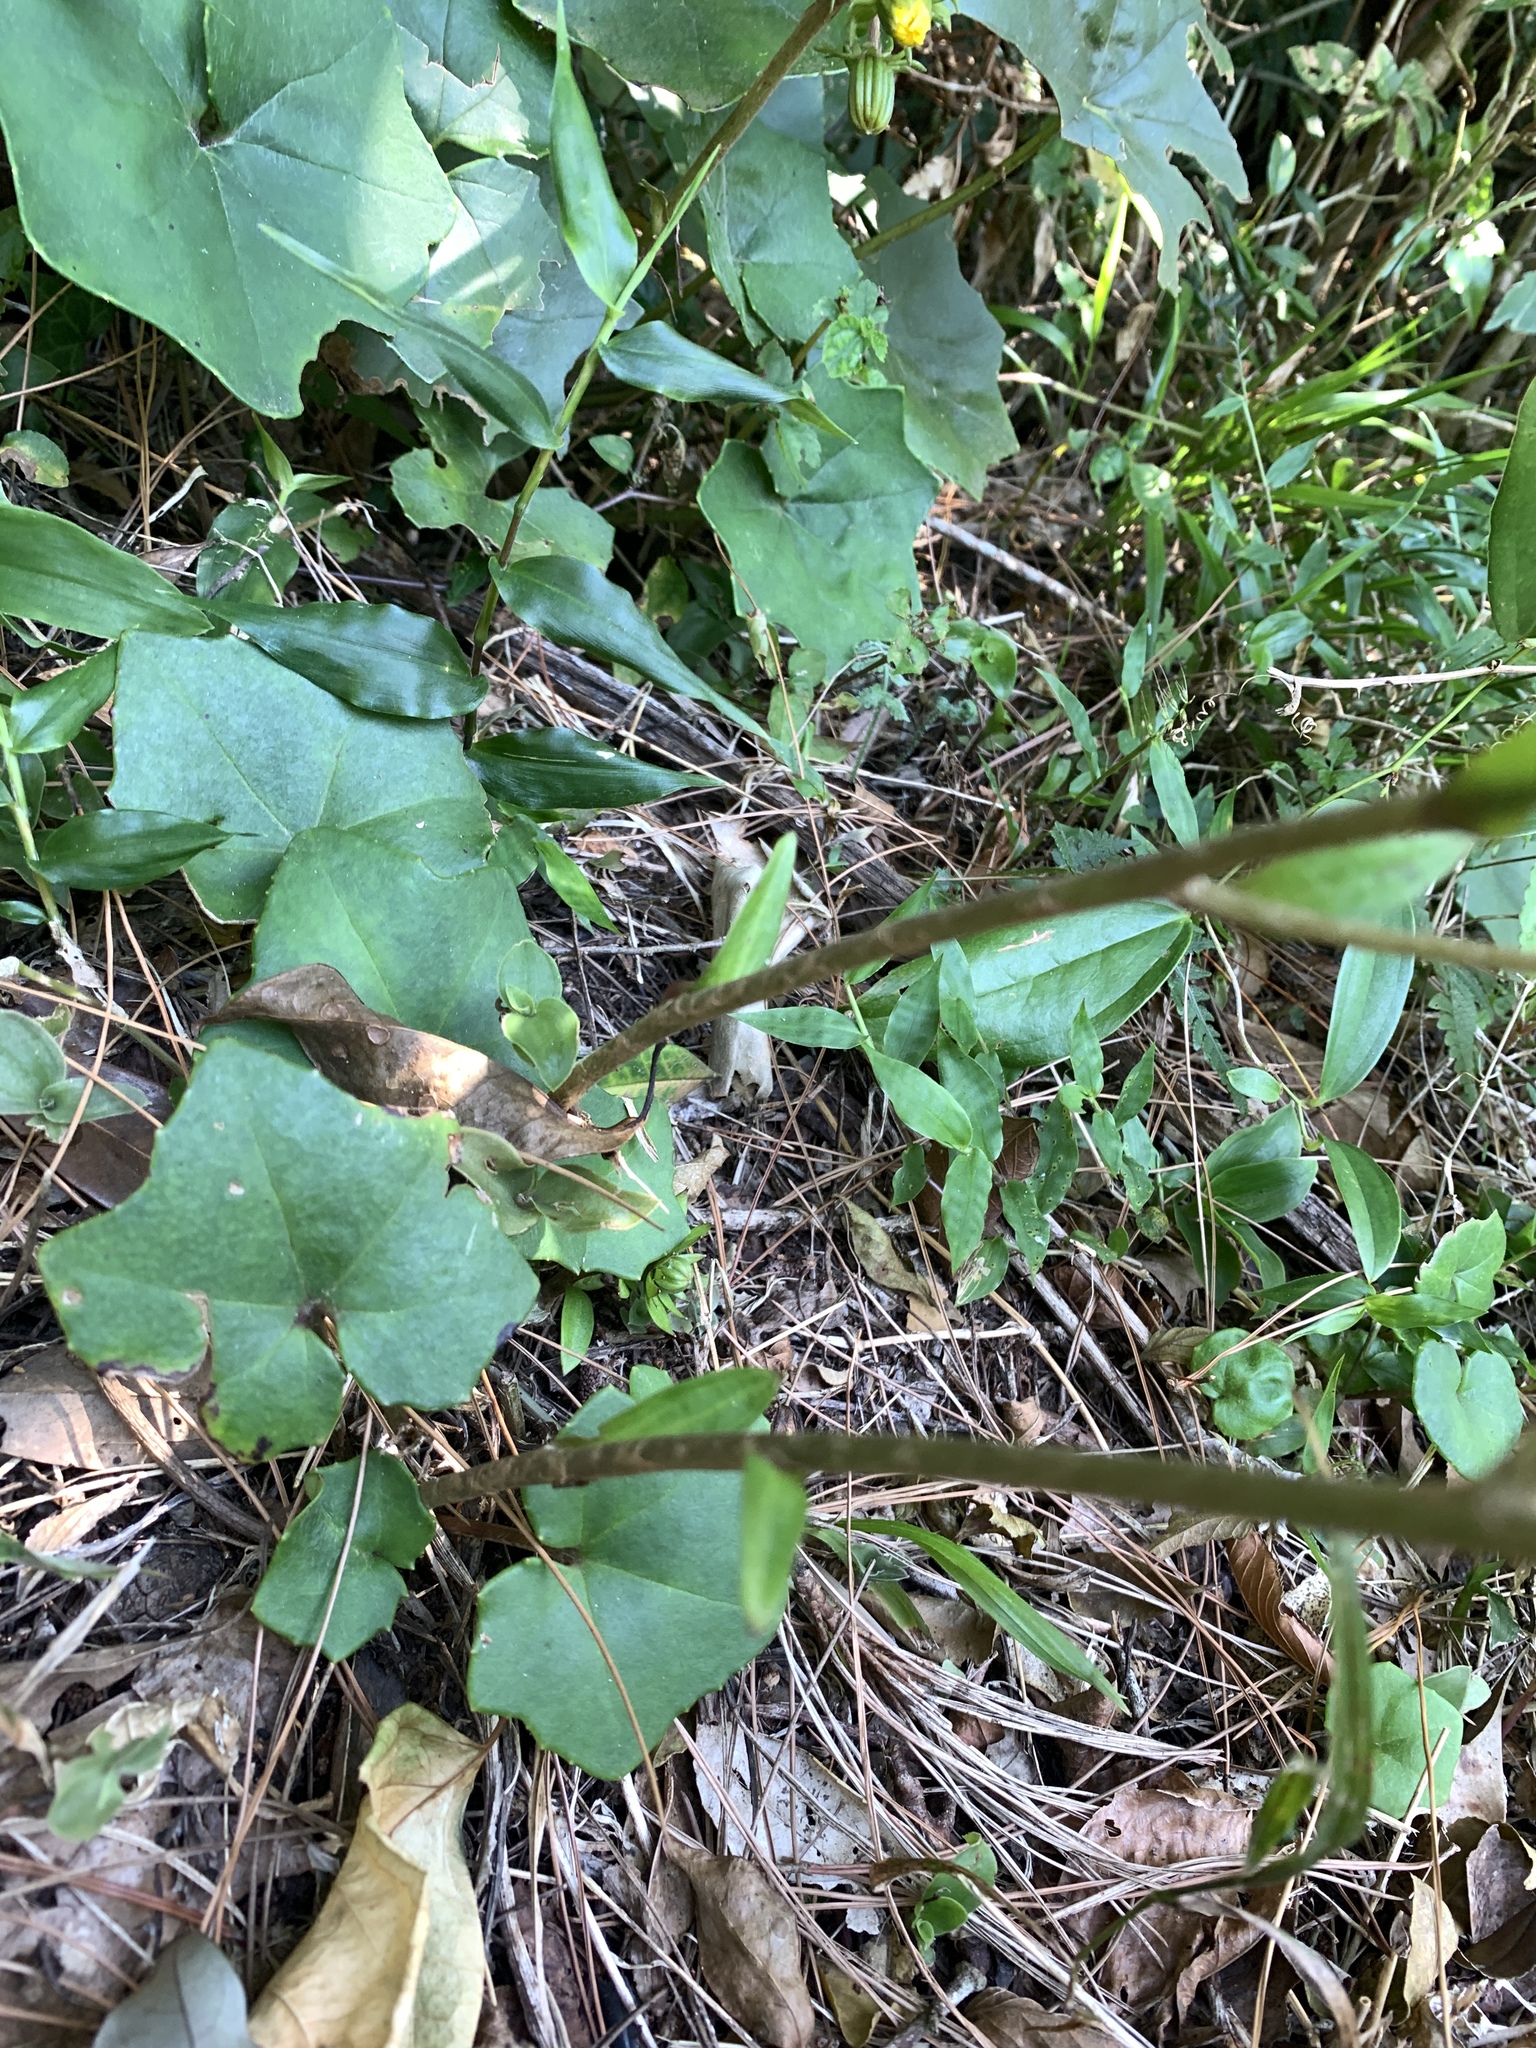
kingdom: Plantae
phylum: Tracheophyta
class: Magnoliopsida
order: Asterales
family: Asteraceae
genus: Farfugium
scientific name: Farfugium japonicum
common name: Leopardplant
